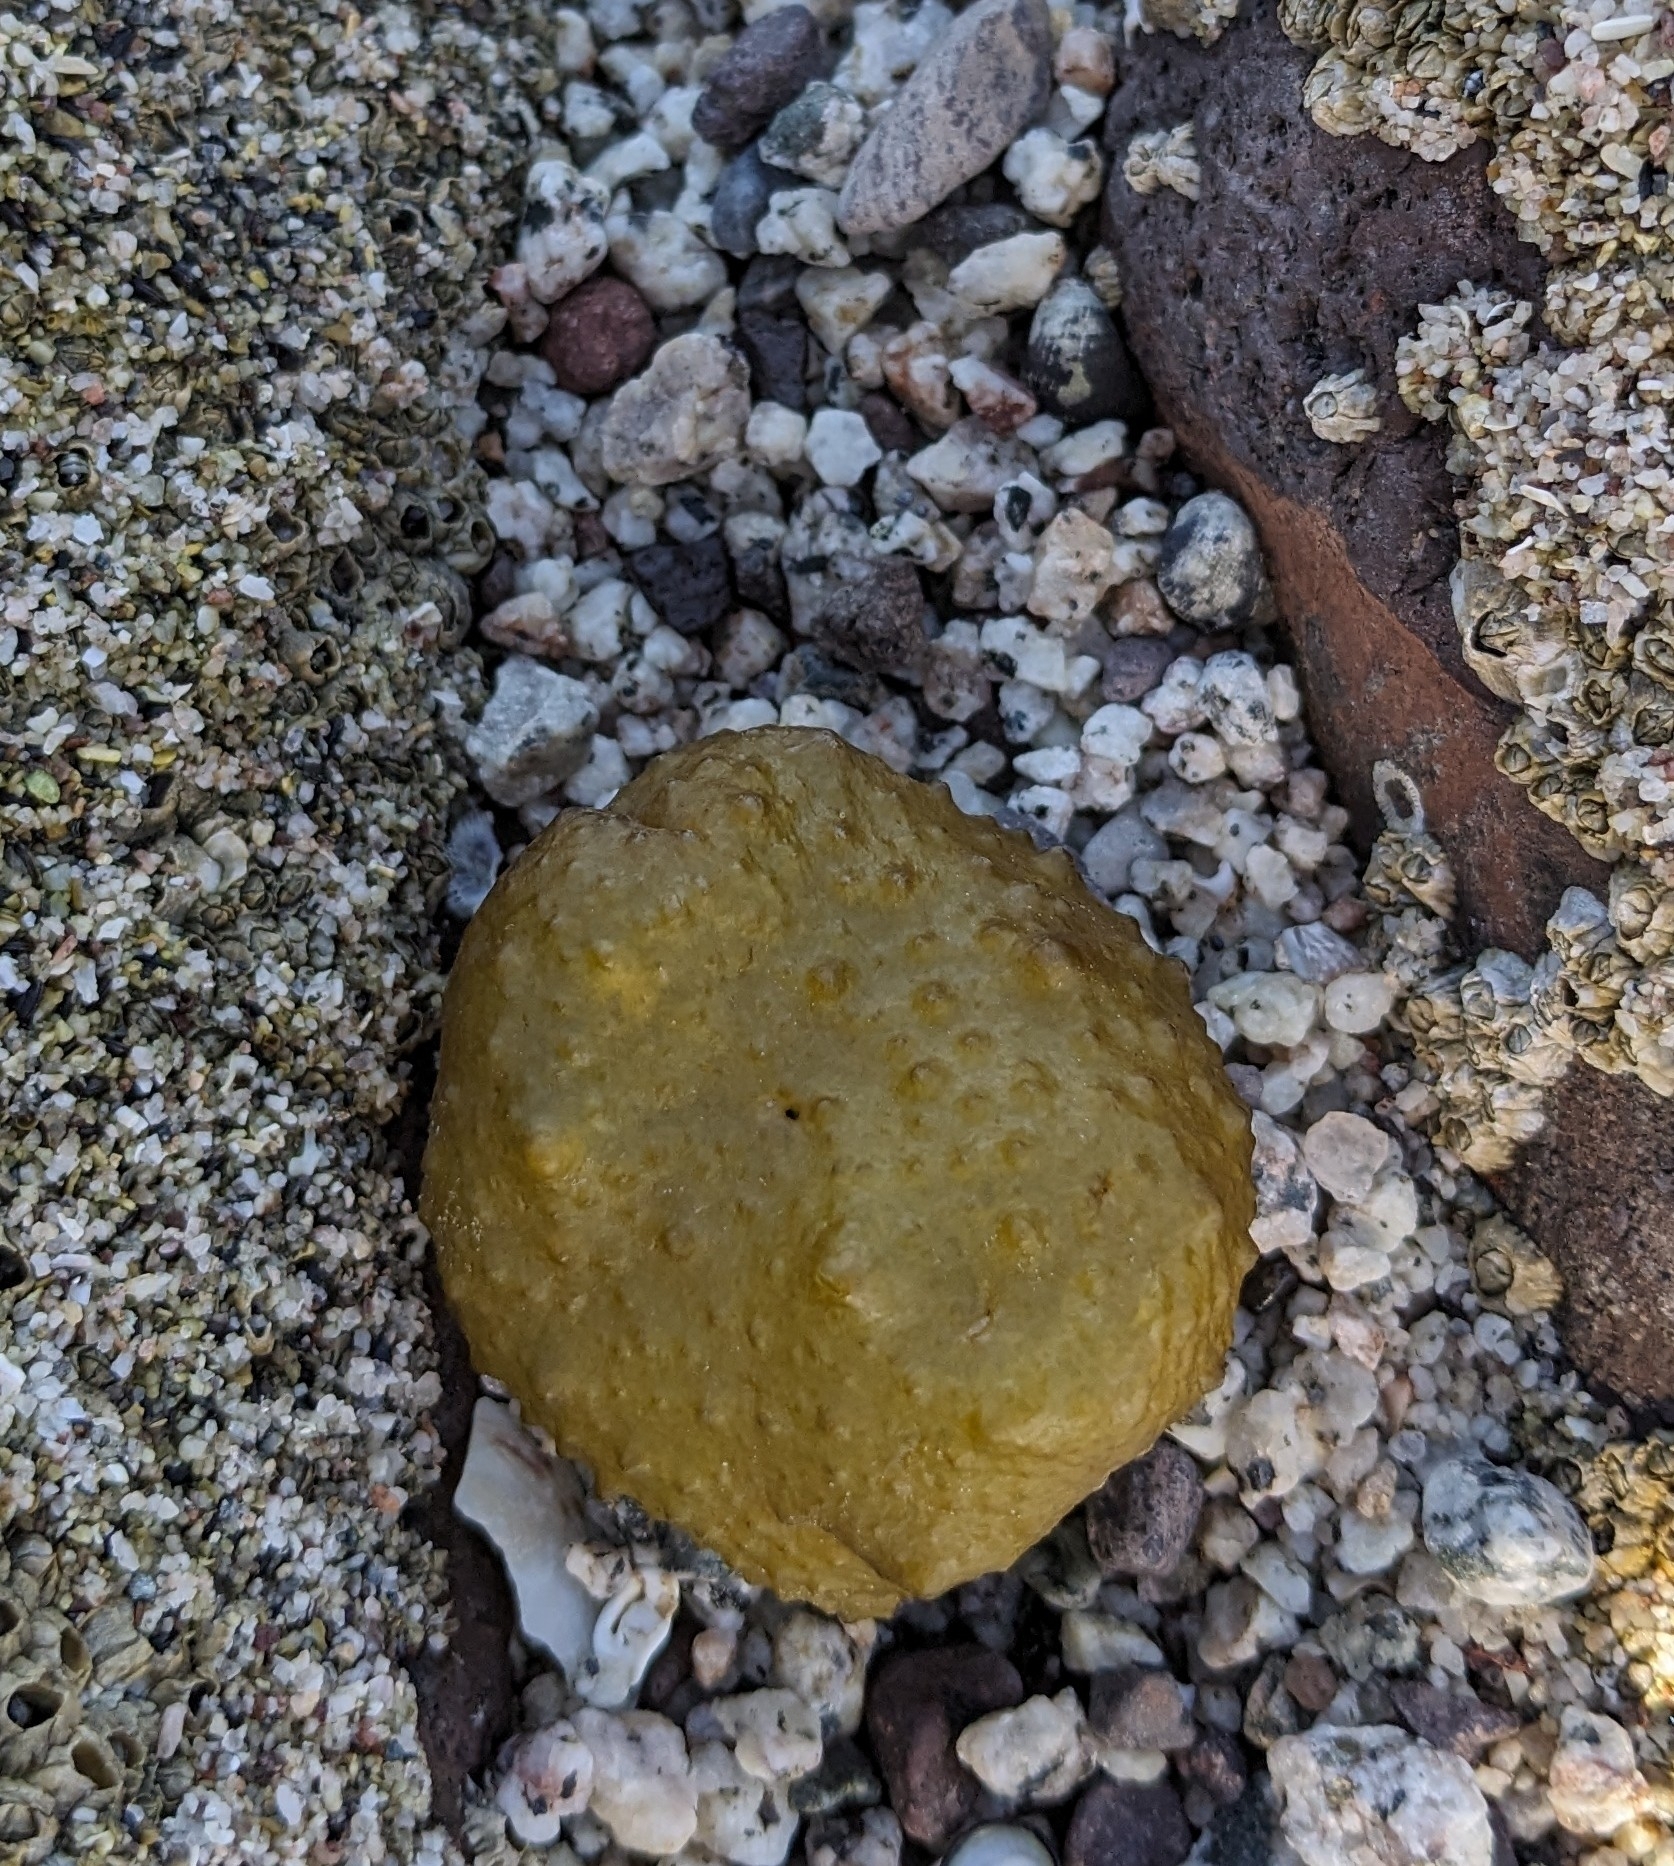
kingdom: Chromista
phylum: Ochrophyta
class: Phaeophyceae
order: Scytosiphonales
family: Scytosiphonaceae
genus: Colpomenia
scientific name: Colpomenia
